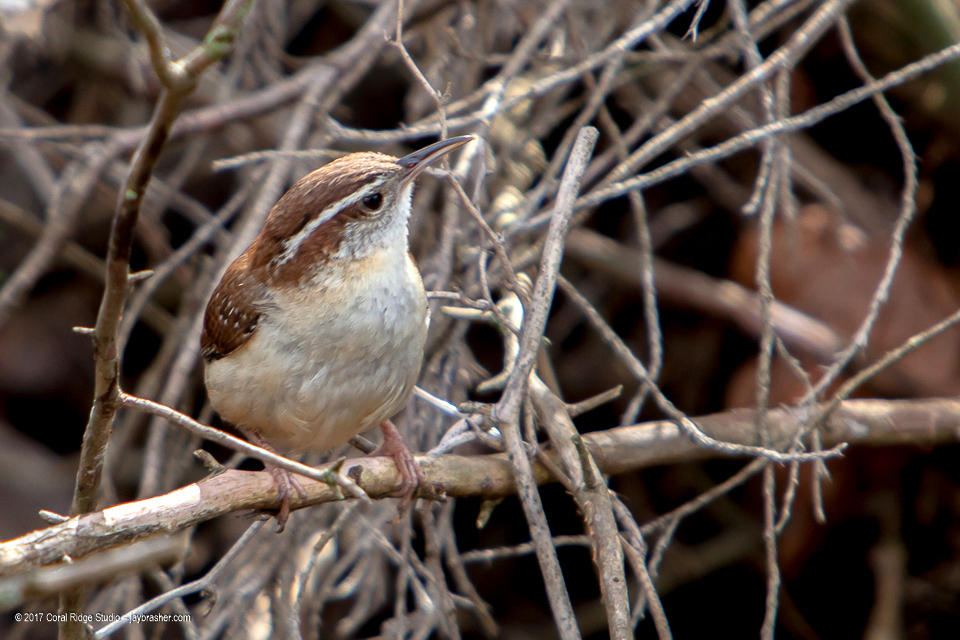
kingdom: Animalia
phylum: Chordata
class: Aves
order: Passeriformes
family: Troglodytidae
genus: Thryothorus
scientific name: Thryothorus ludovicianus
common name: Carolina wren
